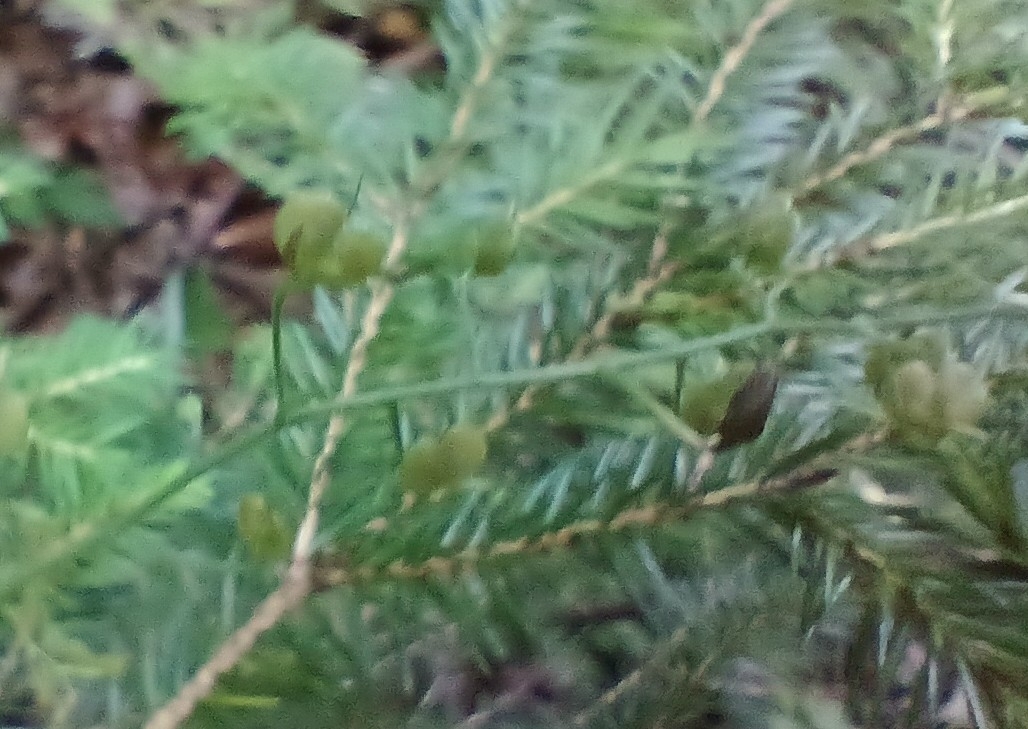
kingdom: Plantae
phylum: Tracheophyta
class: Magnoliopsida
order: Lamiales
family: Plantaginaceae
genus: Veronica
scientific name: Veronica urticifolia
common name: Nettle-leaf speedwell
